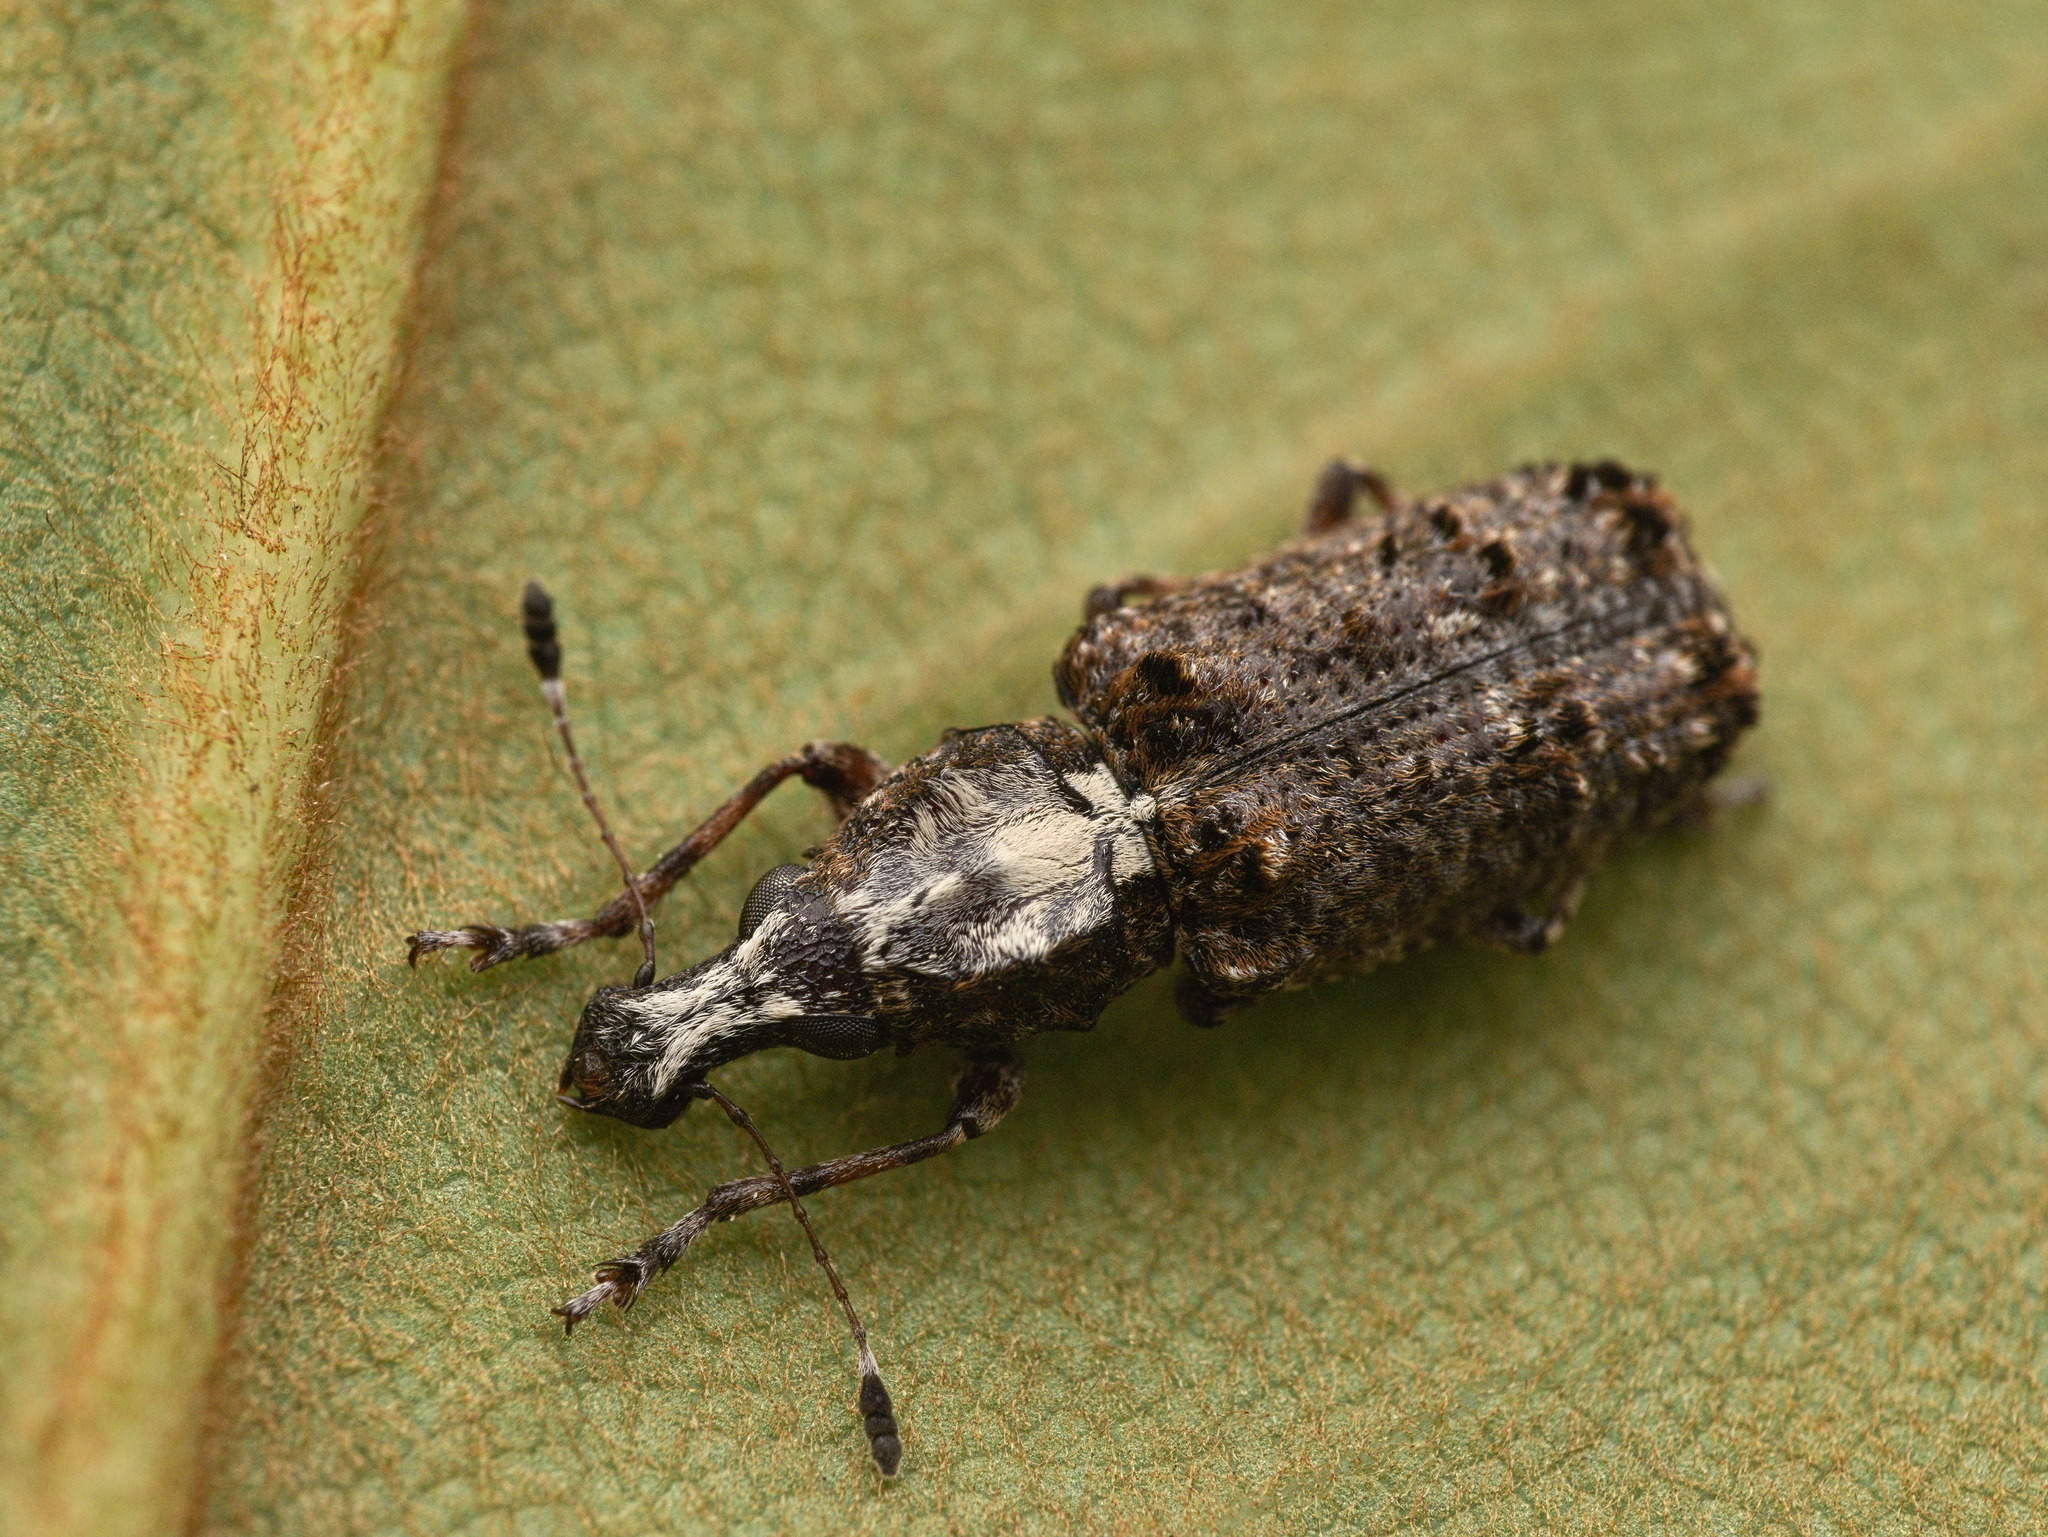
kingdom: Animalia
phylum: Arthropoda
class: Insecta
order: Coleoptera
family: Anthribidae
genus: Meconemus
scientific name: Meconemus impressicollis
